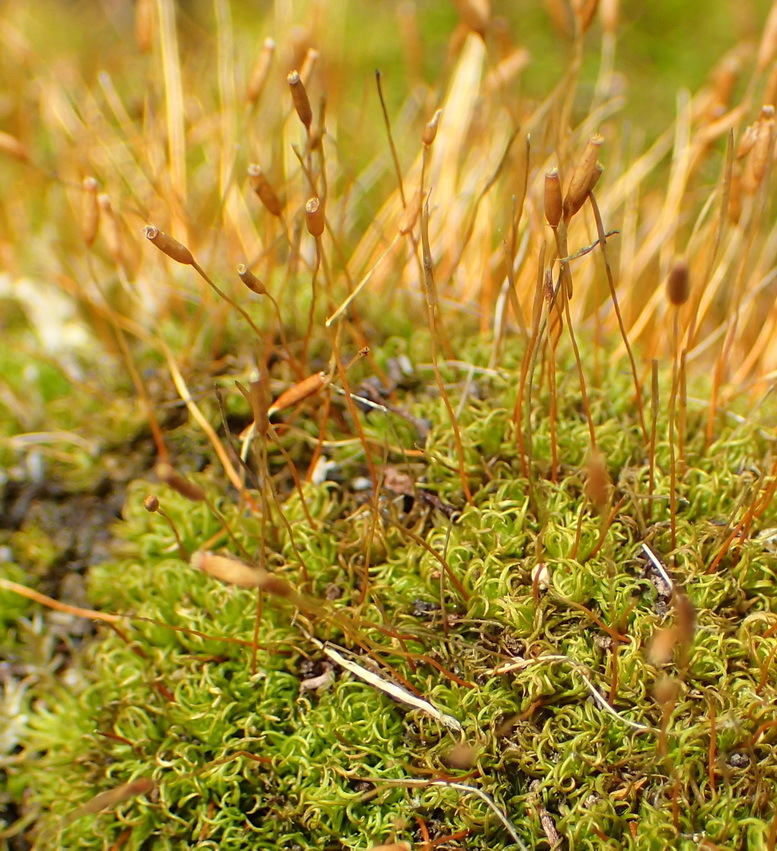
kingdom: Plantae
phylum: Bryophyta
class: Bryopsida
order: Pottiales
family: Pottiaceae
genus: Tortella
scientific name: Tortella xanthocarpa
